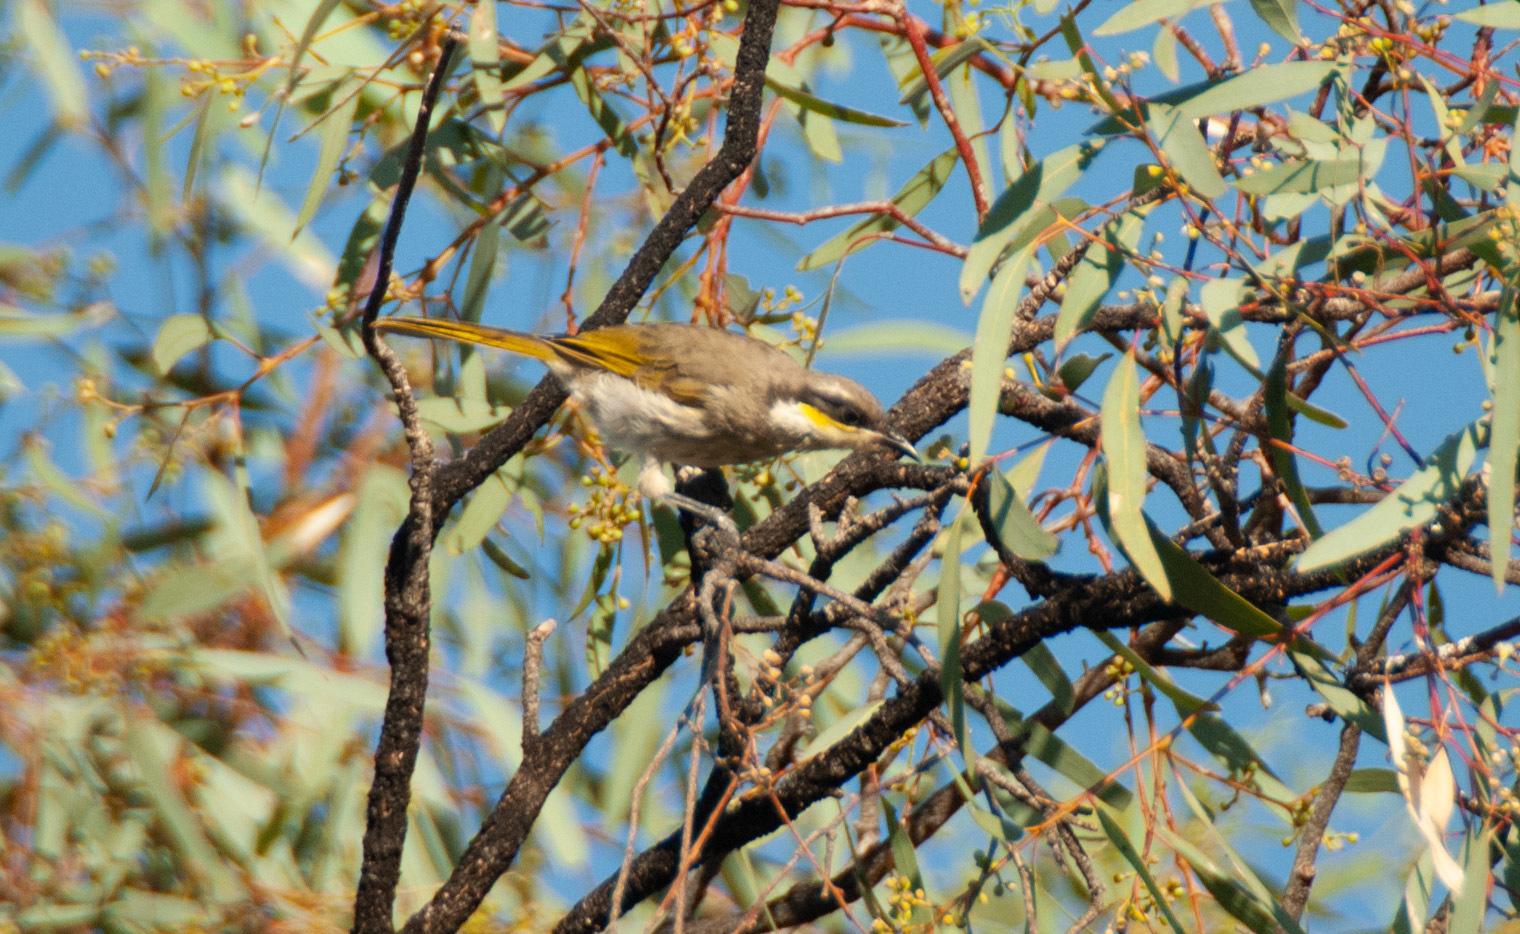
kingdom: Animalia
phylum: Chordata
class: Aves
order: Passeriformes
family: Meliphagidae
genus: Gavicalis
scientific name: Gavicalis virescens
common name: Singing honeyeater
